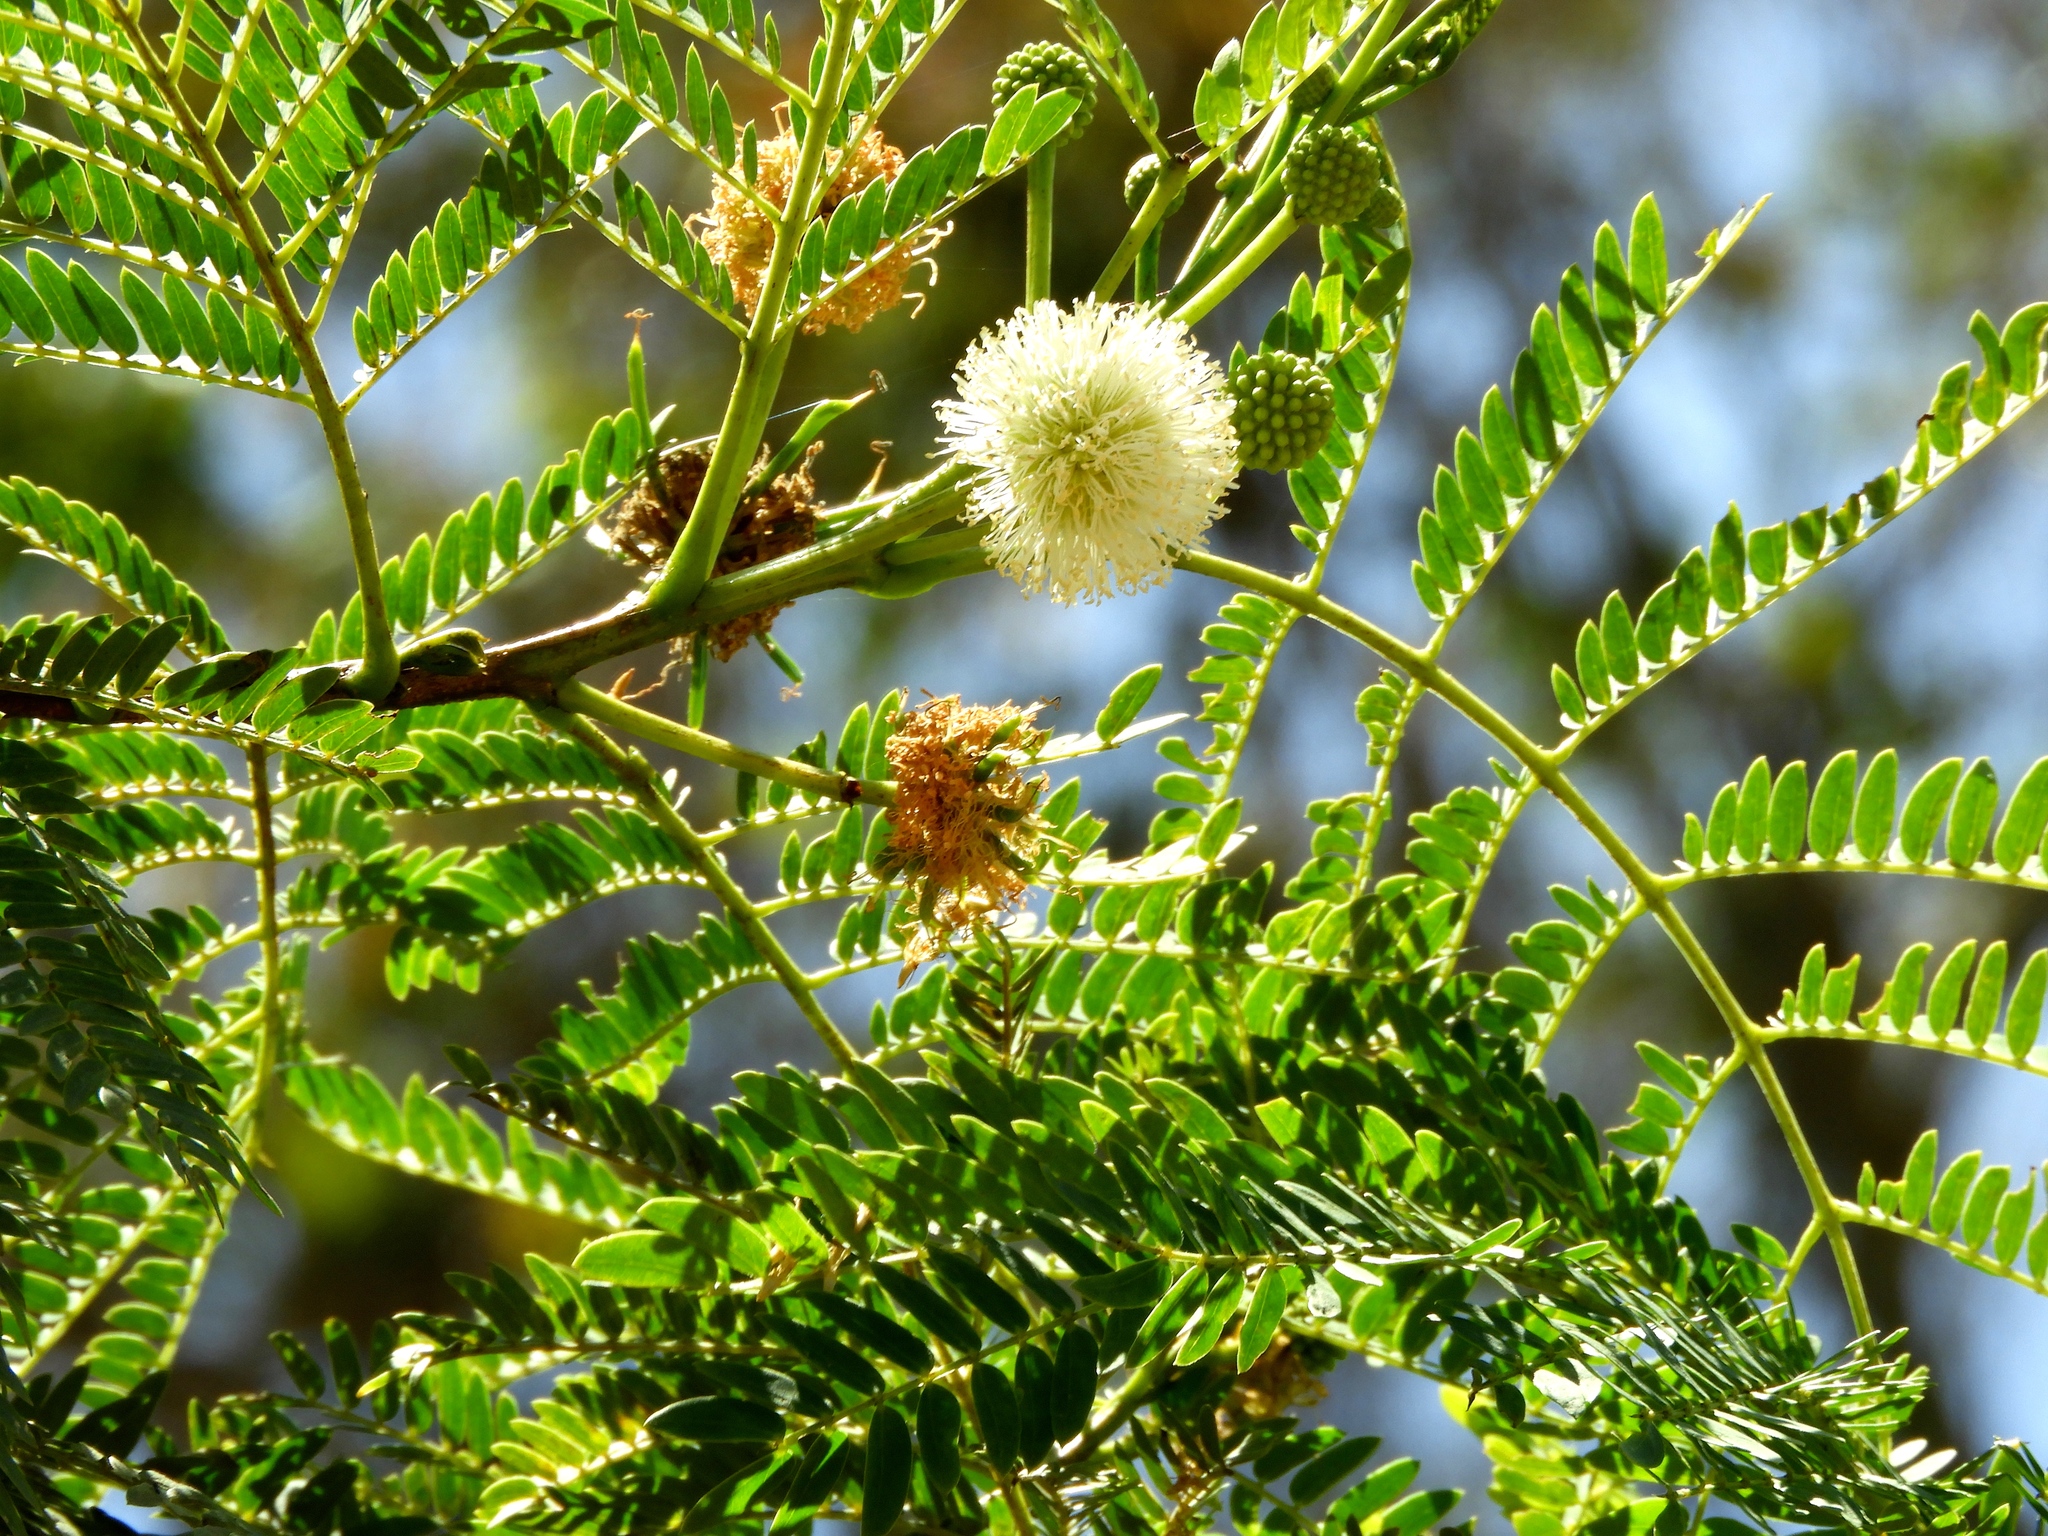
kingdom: Plantae
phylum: Tracheophyta
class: Magnoliopsida
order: Fabales
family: Fabaceae
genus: Leucaena
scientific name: Leucaena leucocephala
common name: White leadtree
